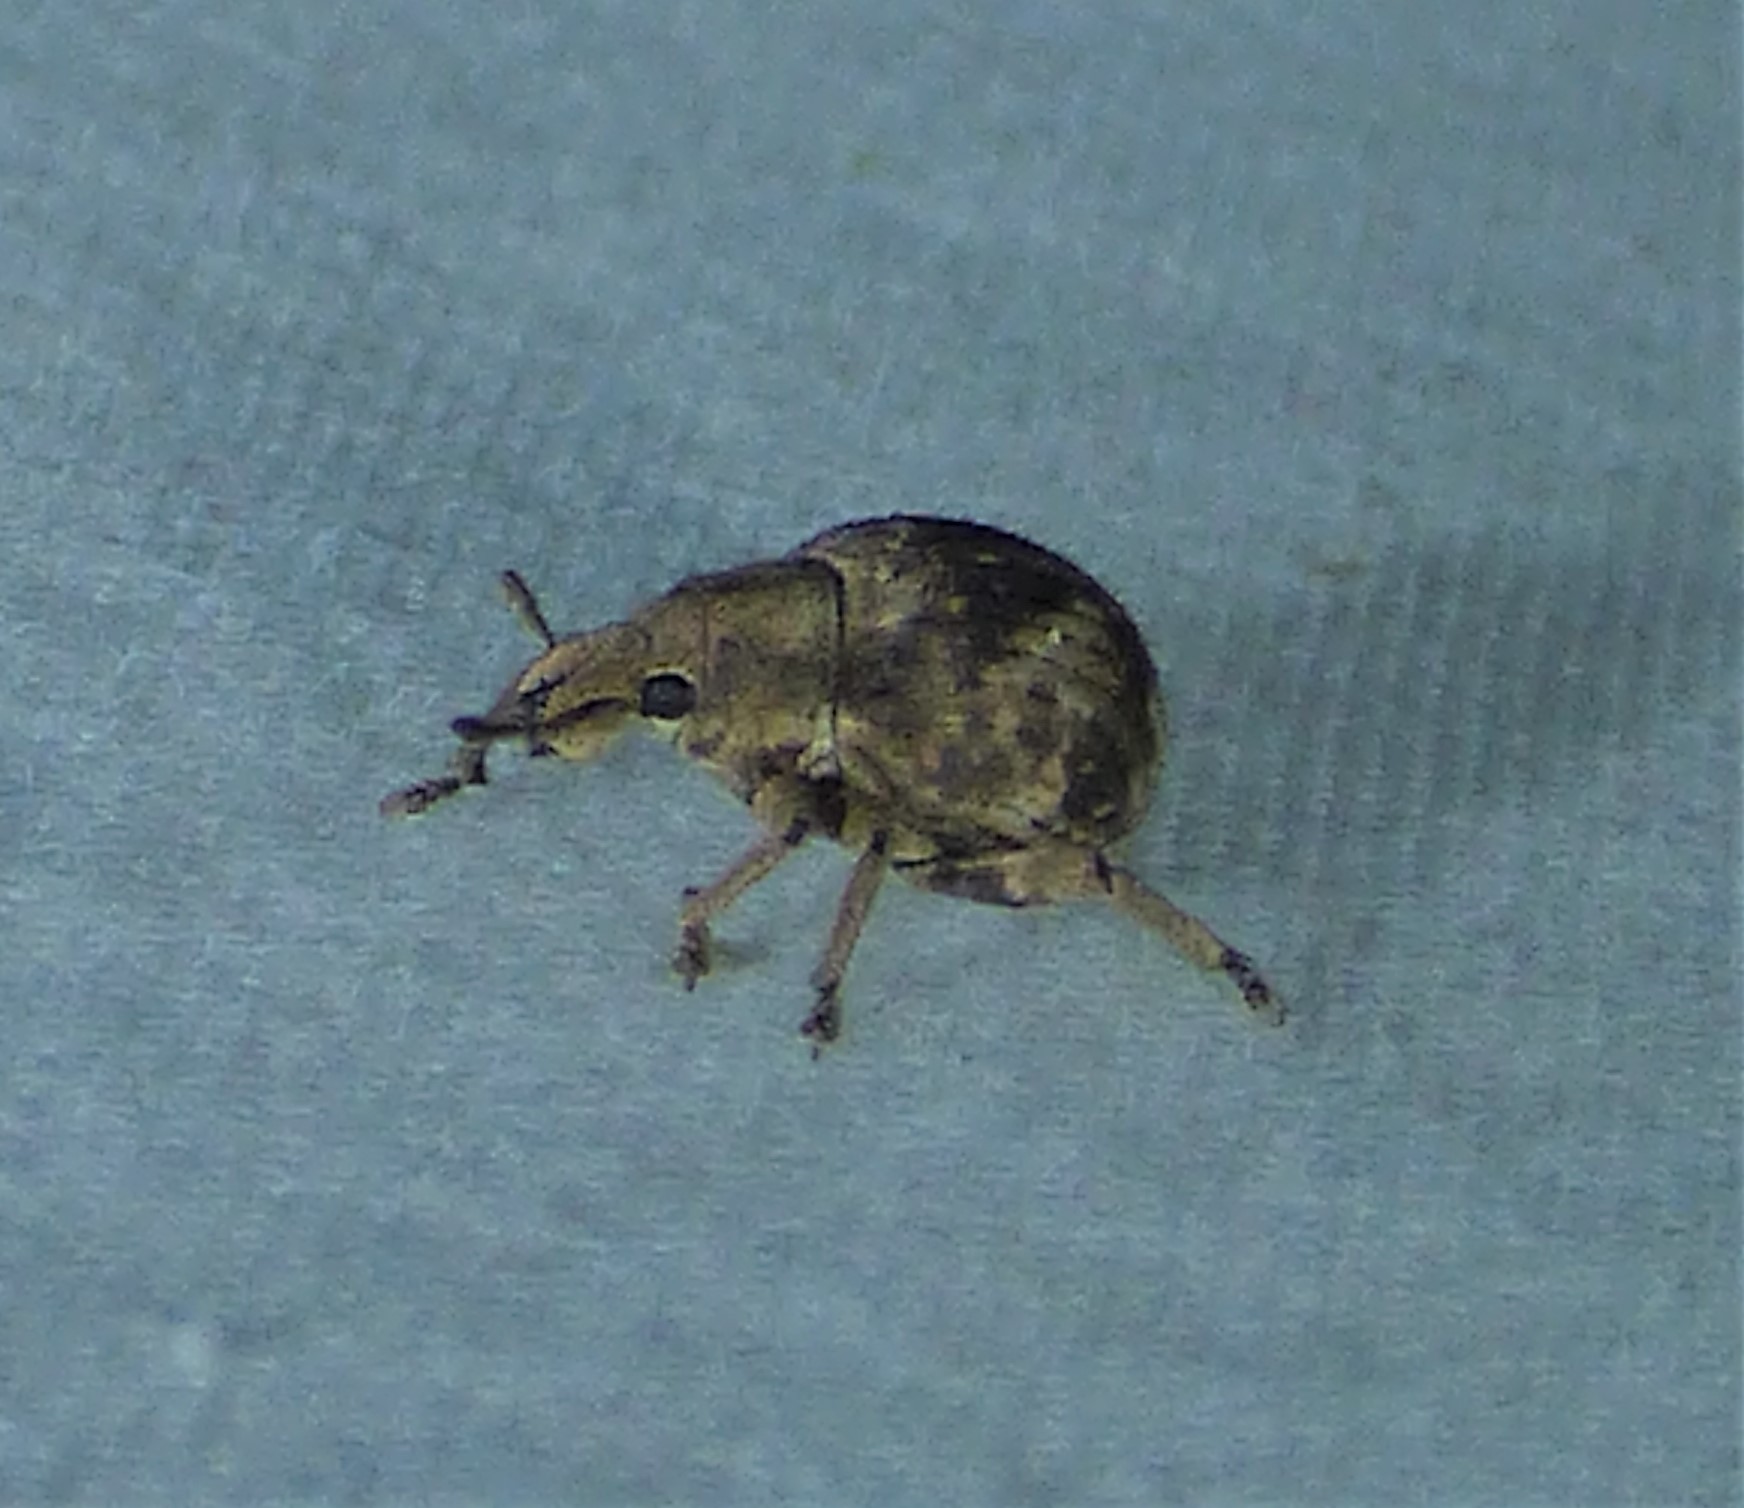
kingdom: Animalia
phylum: Arthropoda
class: Insecta
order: Coleoptera
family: Curculionidae
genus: Pseudocneorhinus
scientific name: Pseudocneorhinus bifasciatus
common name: Two-banded japanese weevil
